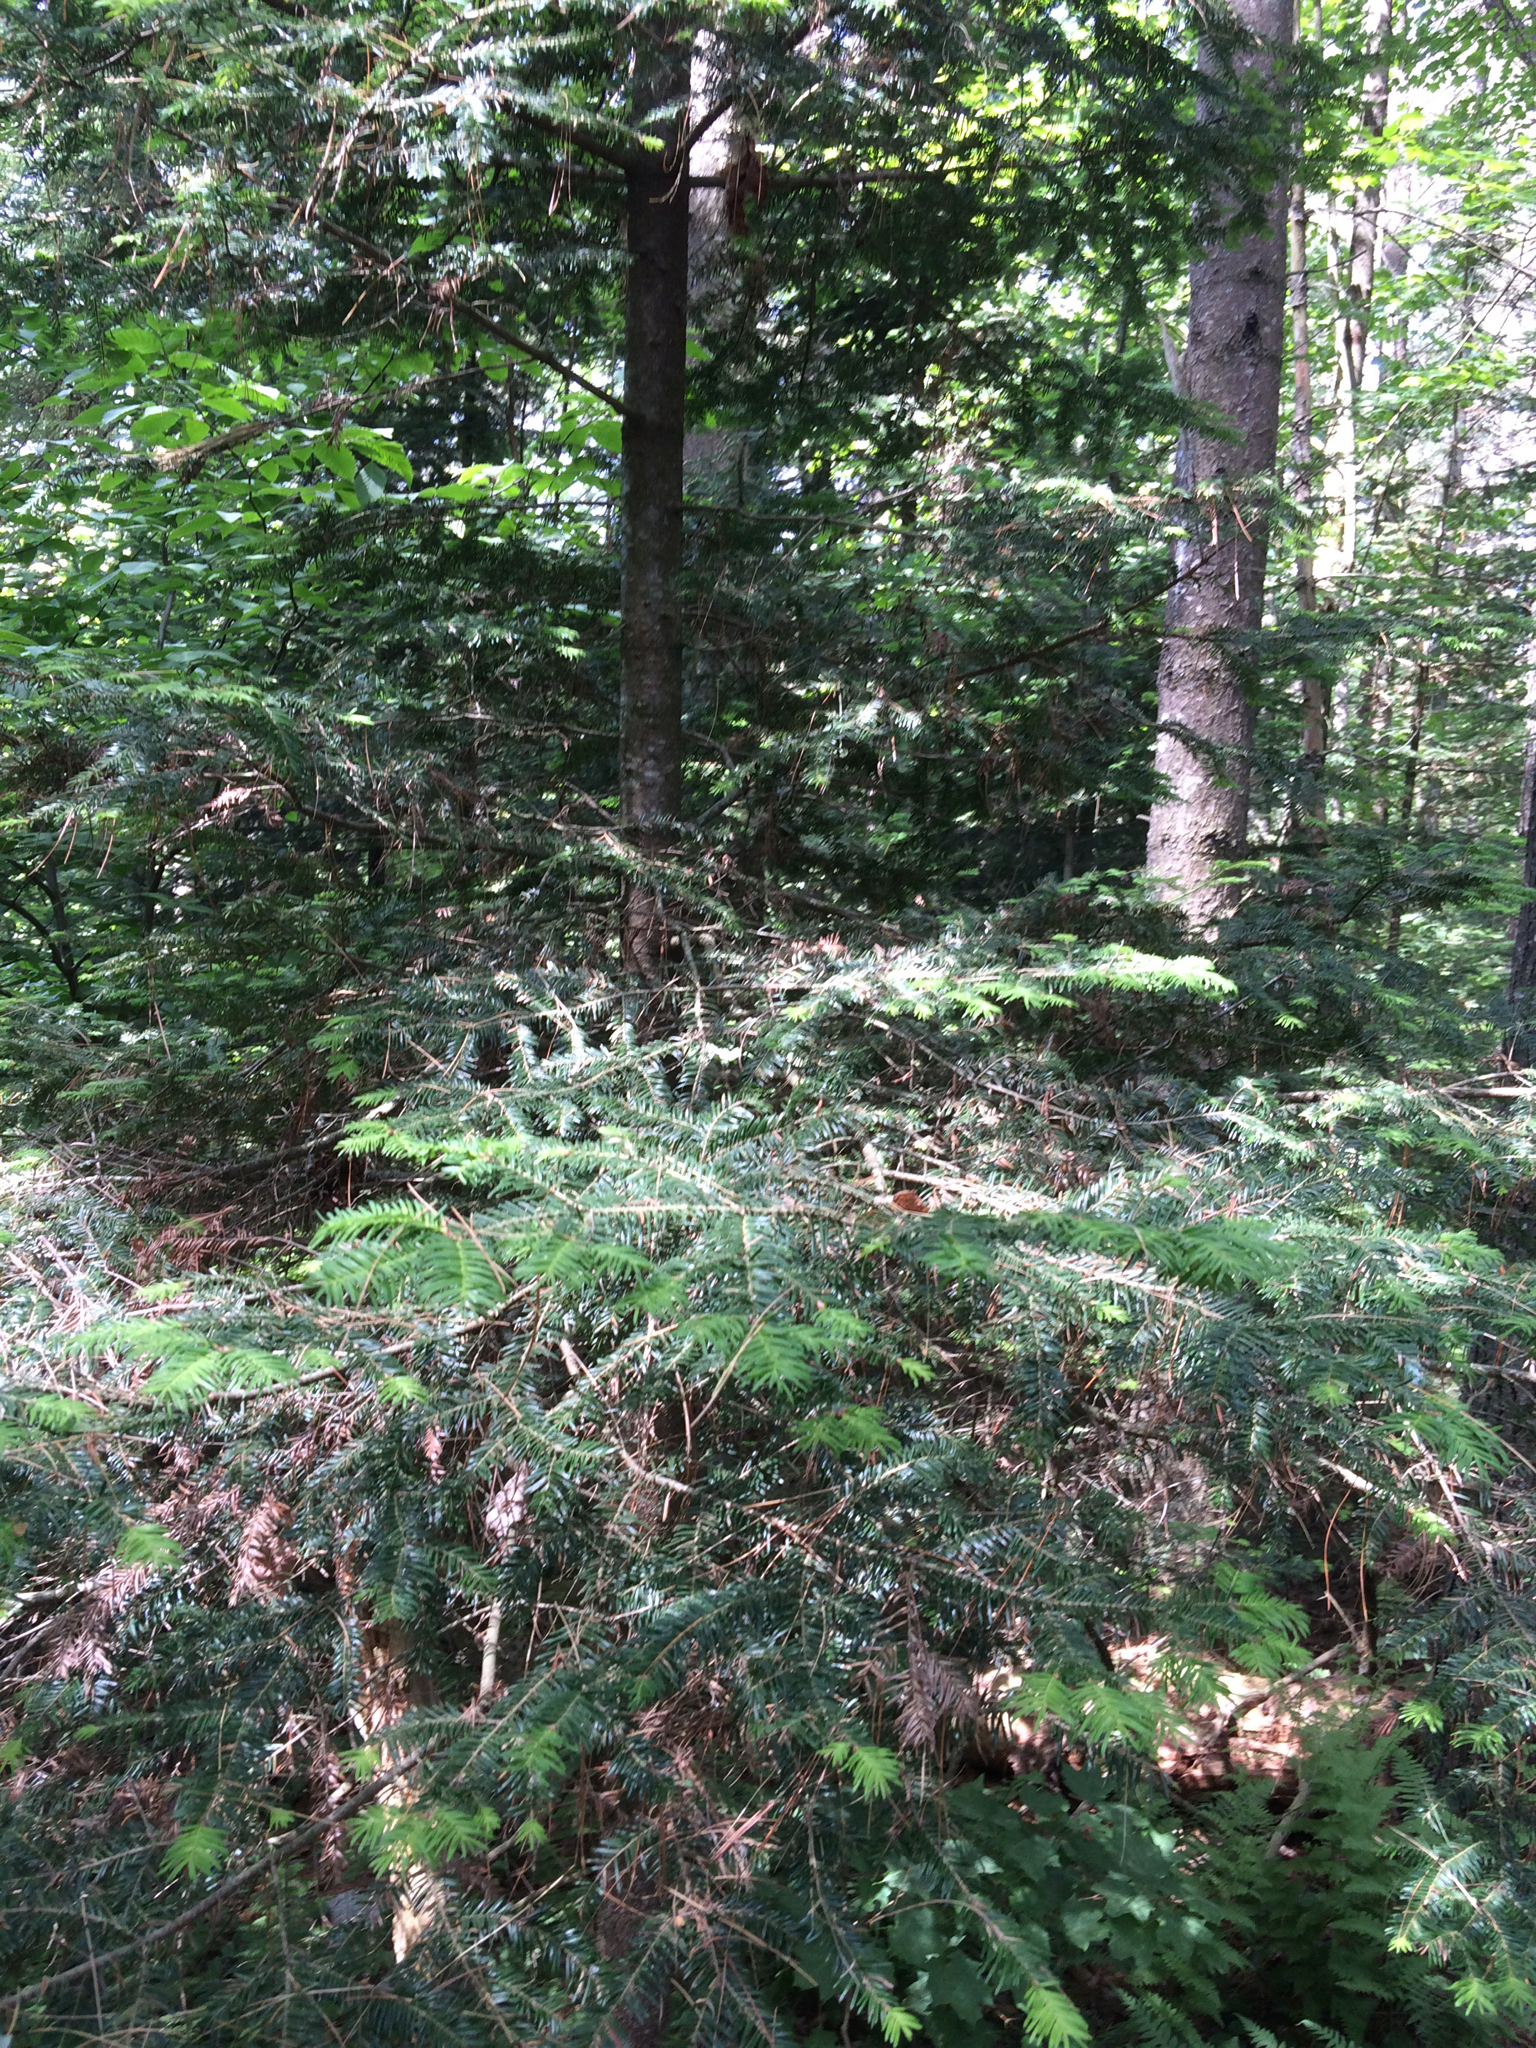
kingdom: Plantae
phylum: Tracheophyta
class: Pinopsida
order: Pinales
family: Pinaceae
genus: Abies
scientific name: Abies balsamea
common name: Balsam fir
